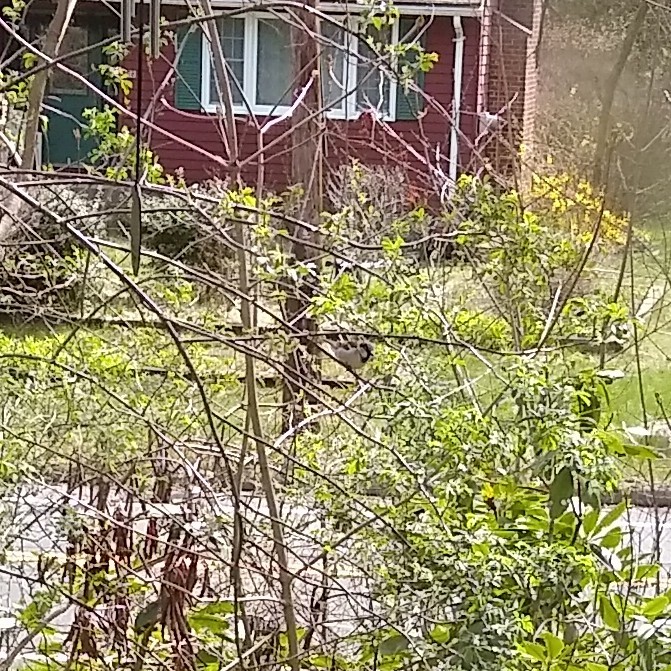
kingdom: Animalia
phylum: Chordata
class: Aves
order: Passeriformes
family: Passeridae
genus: Passer
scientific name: Passer domesticus
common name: House sparrow
